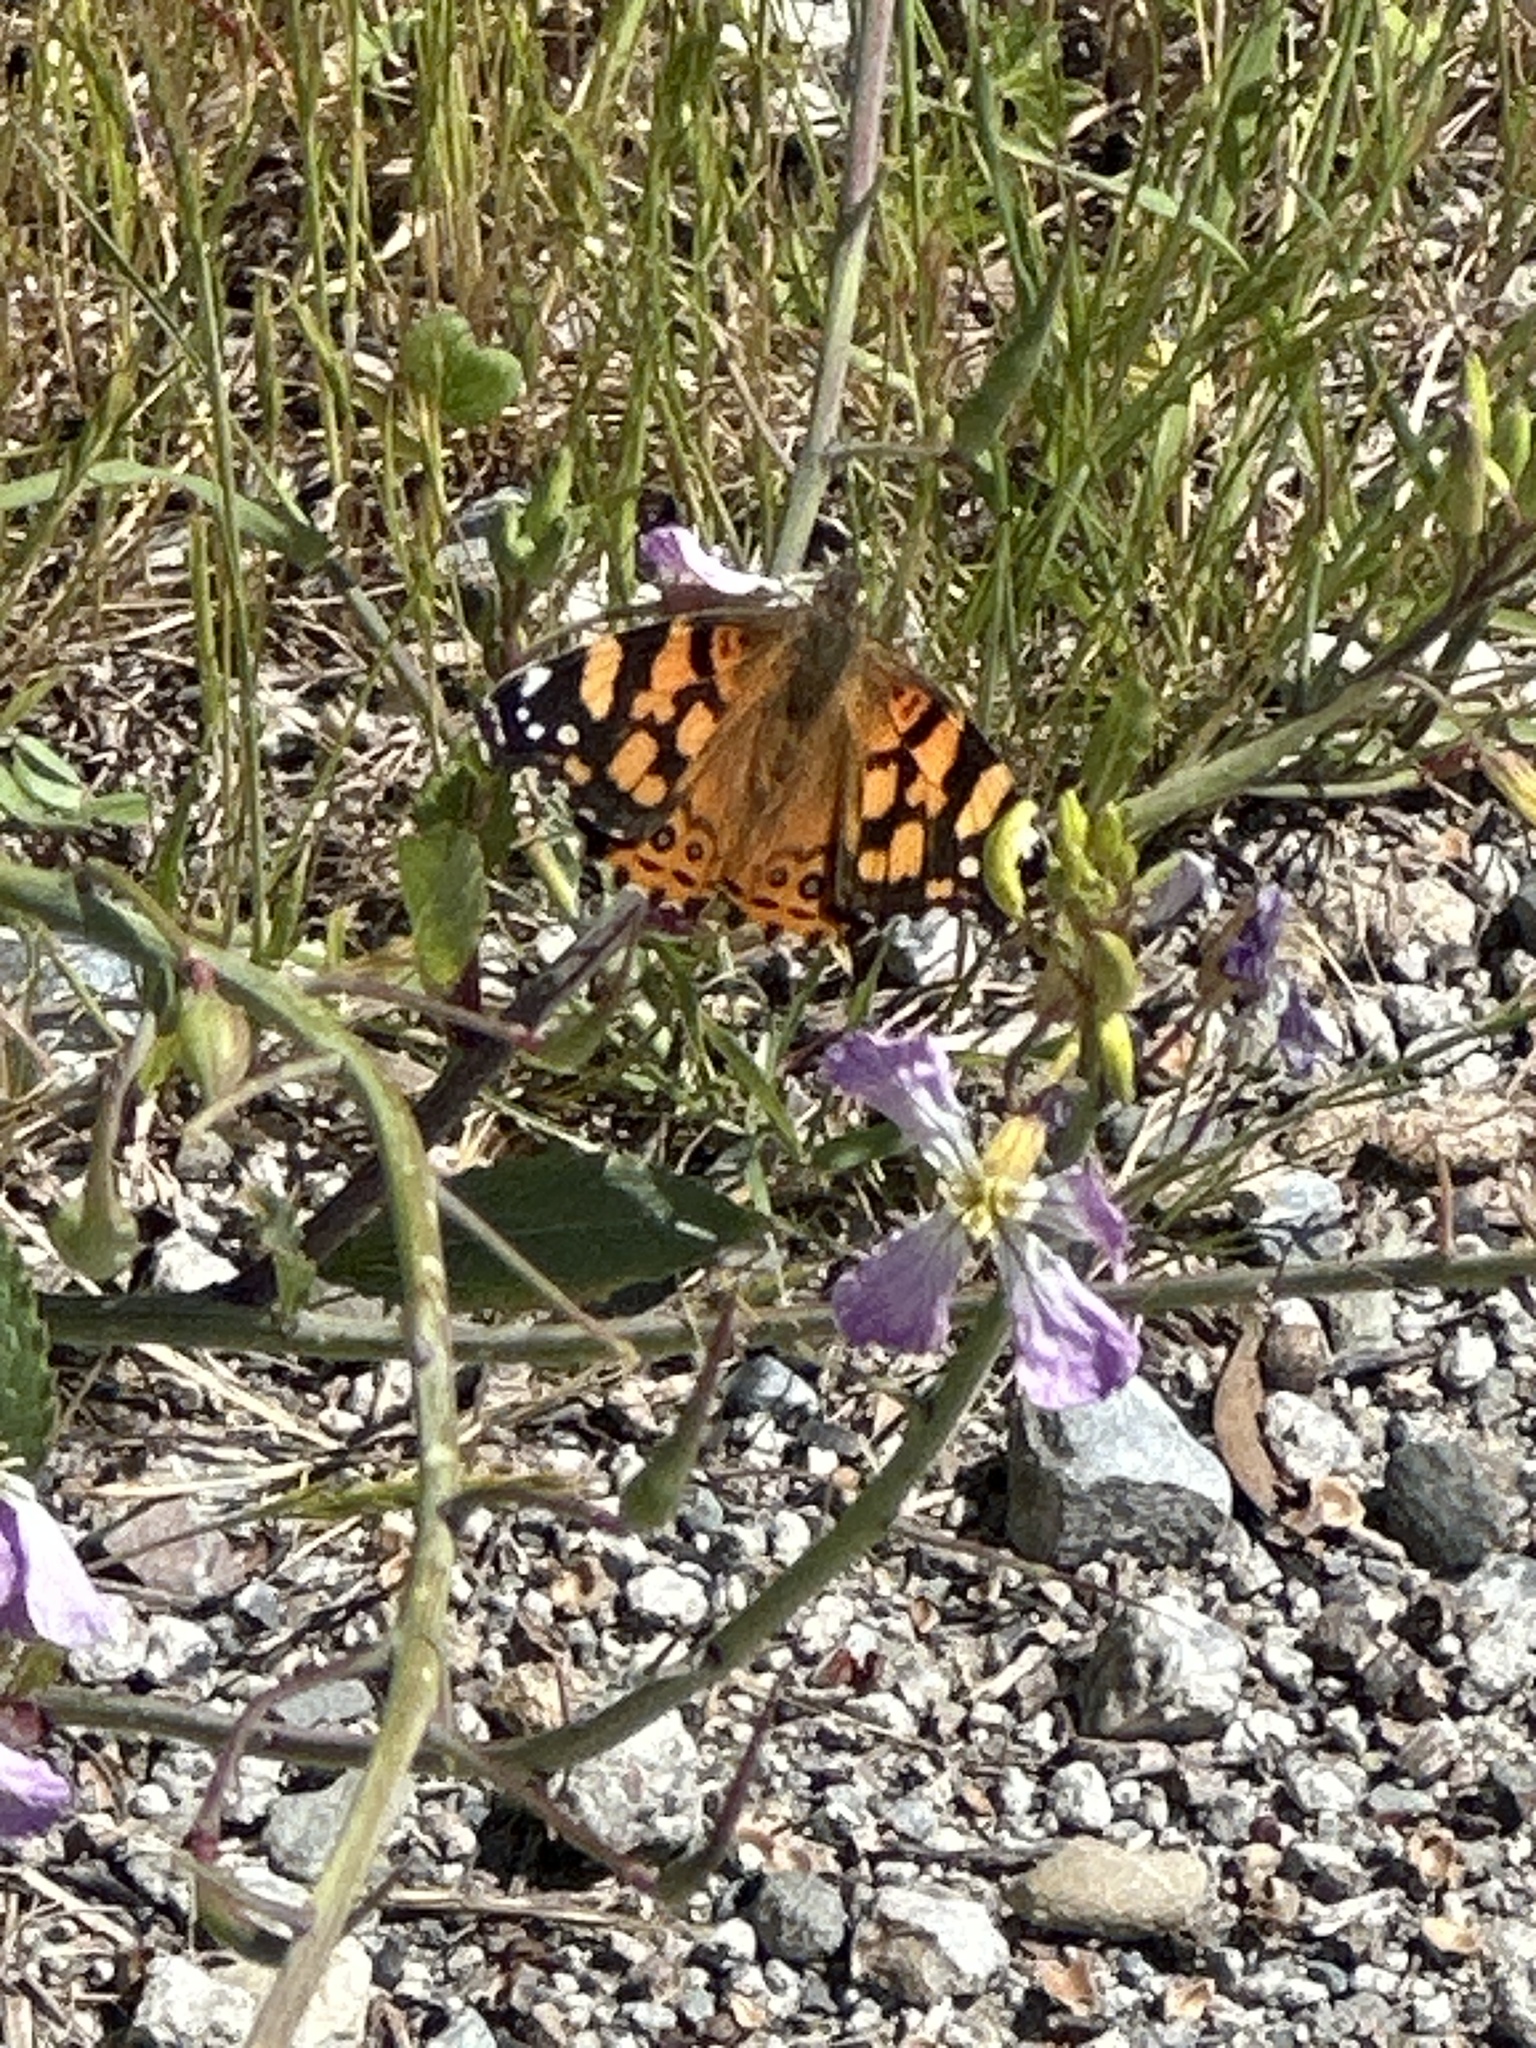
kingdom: Animalia
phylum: Arthropoda
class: Insecta
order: Lepidoptera
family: Nymphalidae
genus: Vanessa
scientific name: Vanessa annabella
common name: West coast lady
